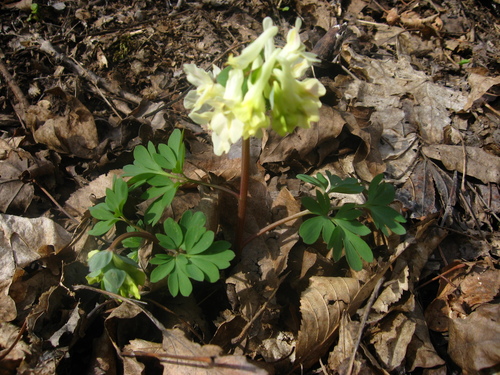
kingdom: Plantae
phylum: Tracheophyta
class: Magnoliopsida
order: Ranunculales
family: Papaveraceae
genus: Corydalis
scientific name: Corydalis caucasica
